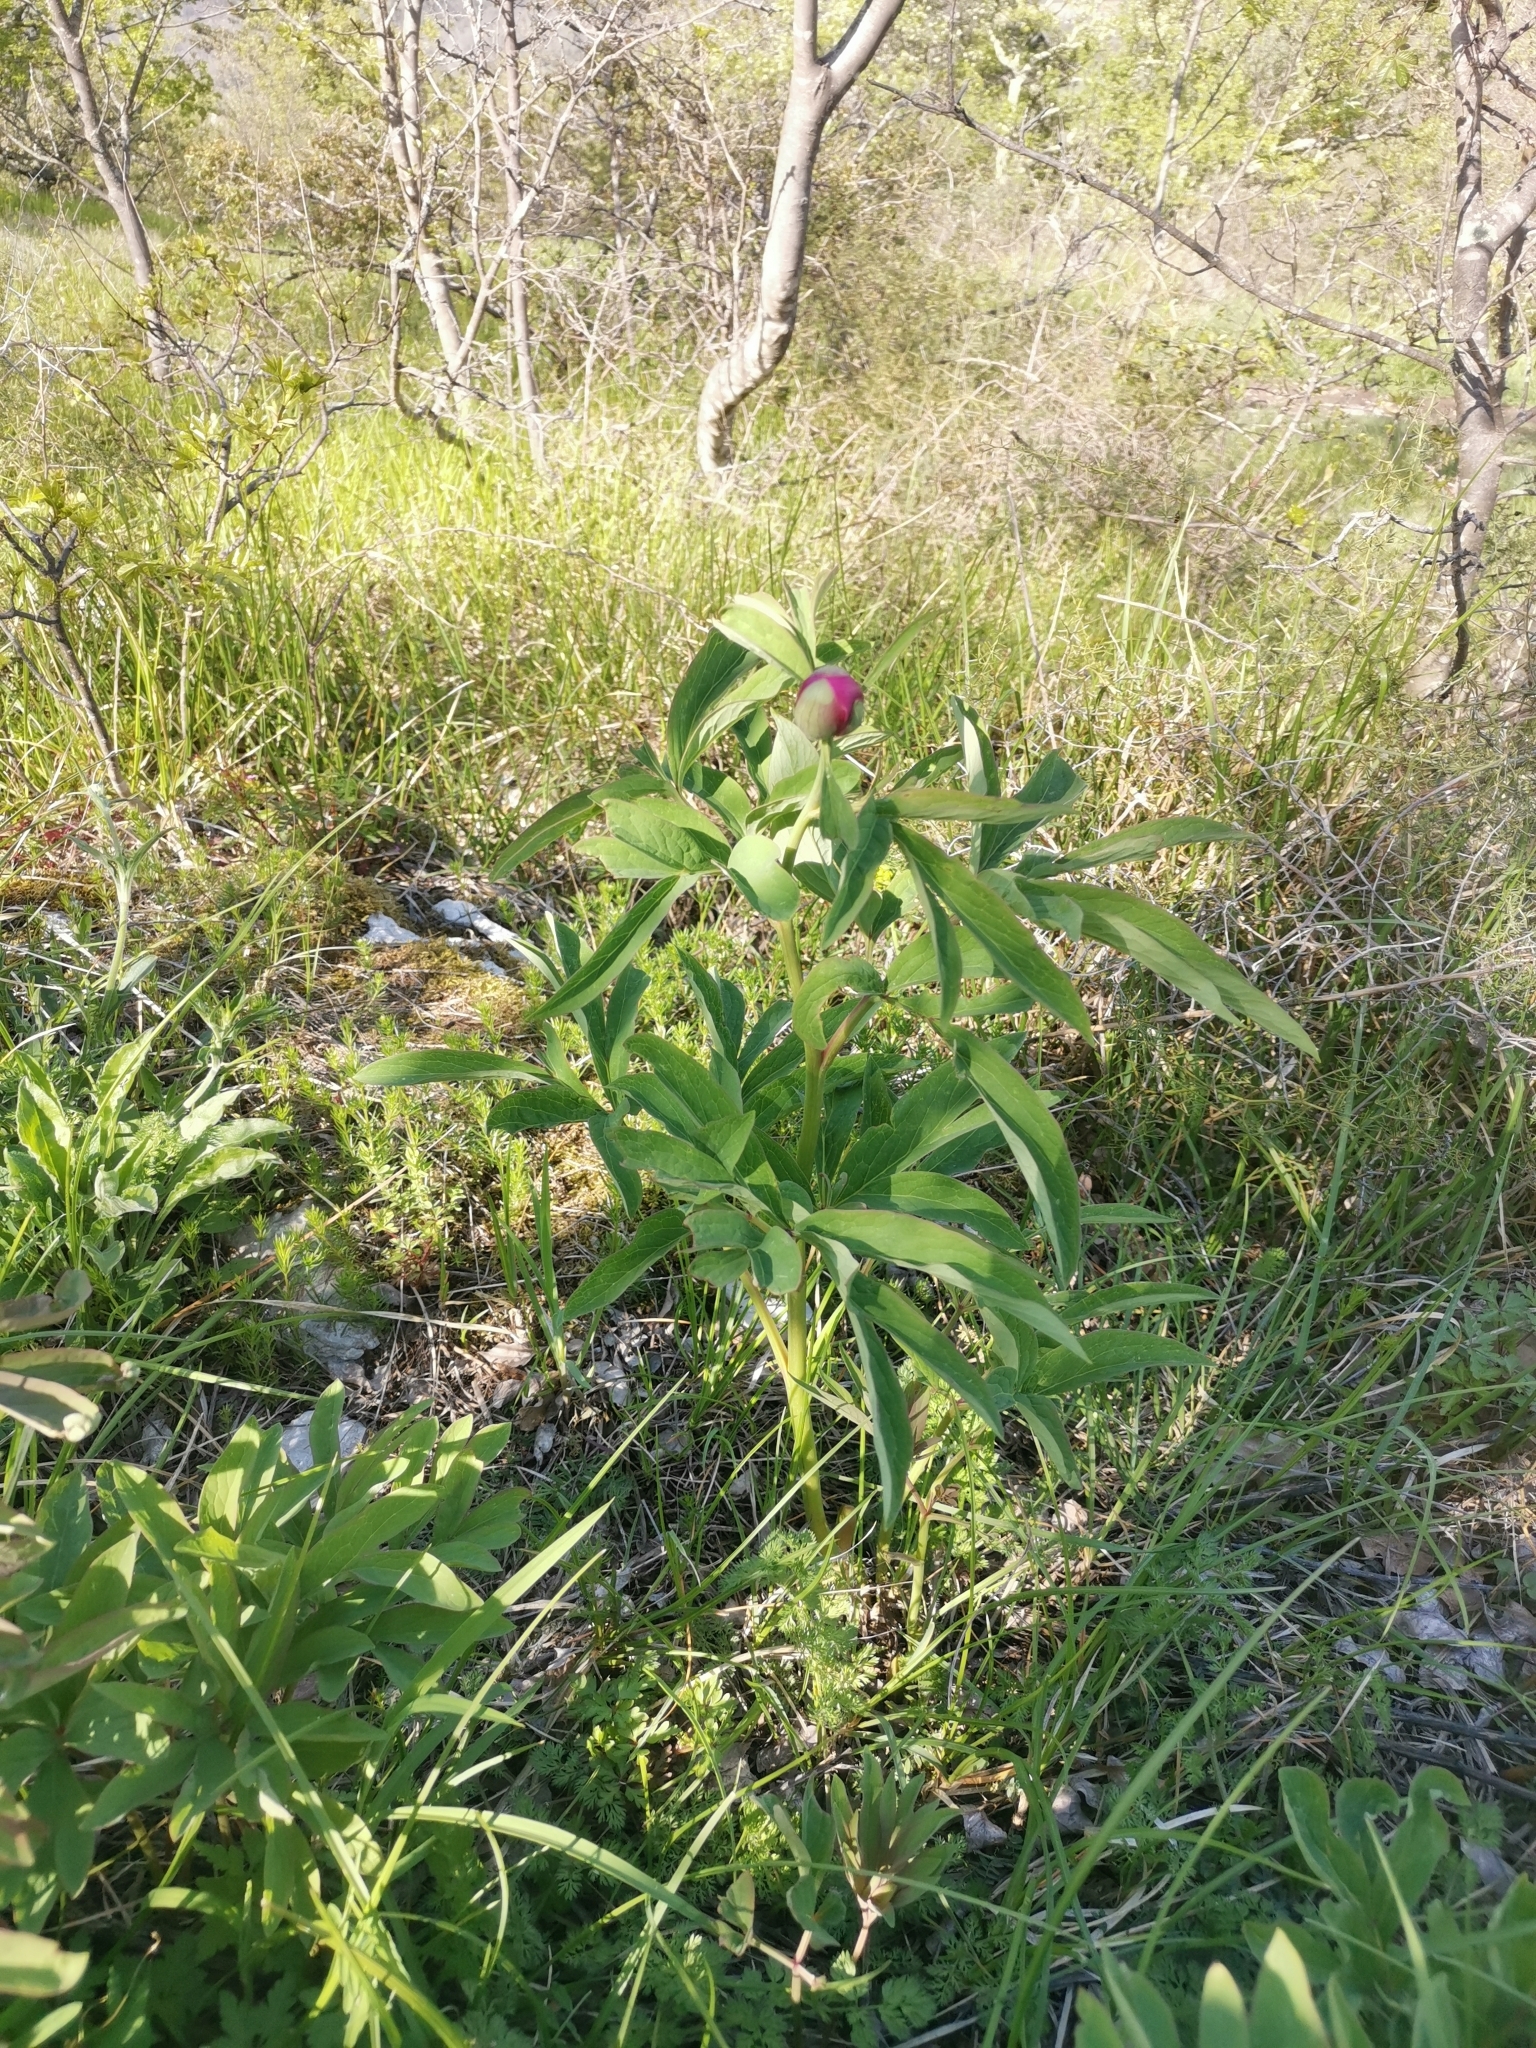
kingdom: Plantae
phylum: Tracheophyta
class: Magnoliopsida
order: Saxifragales
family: Paeoniaceae
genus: Paeonia
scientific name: Paeonia officinalis
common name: Common peony
